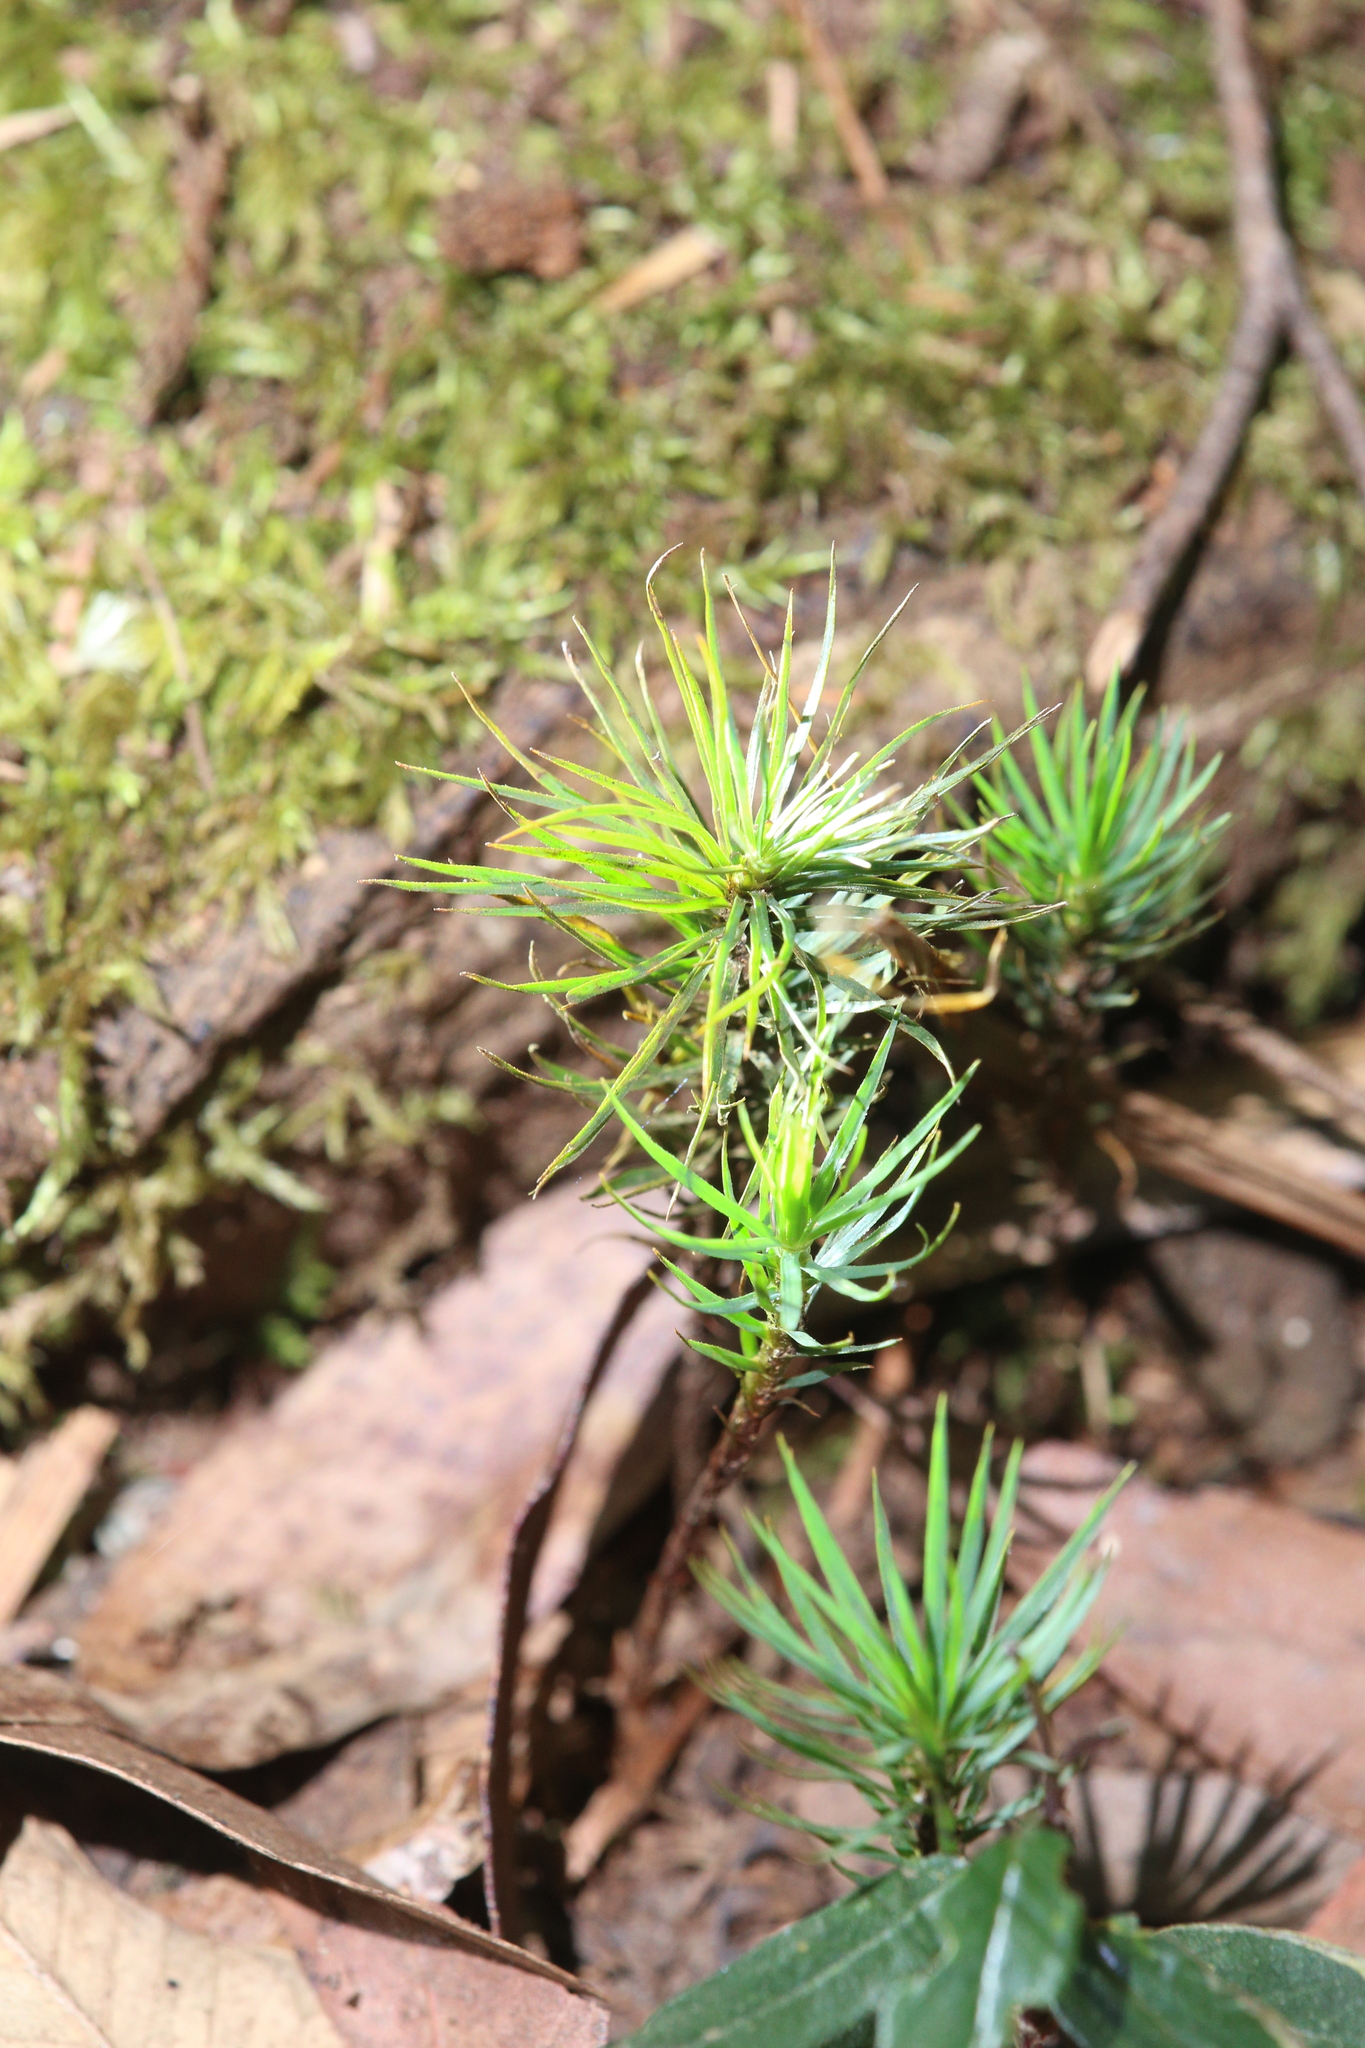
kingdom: Plantae
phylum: Bryophyta
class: Polytrichopsida
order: Polytrichales
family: Polytrichaceae
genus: Dawsonia
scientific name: Dawsonia superba
